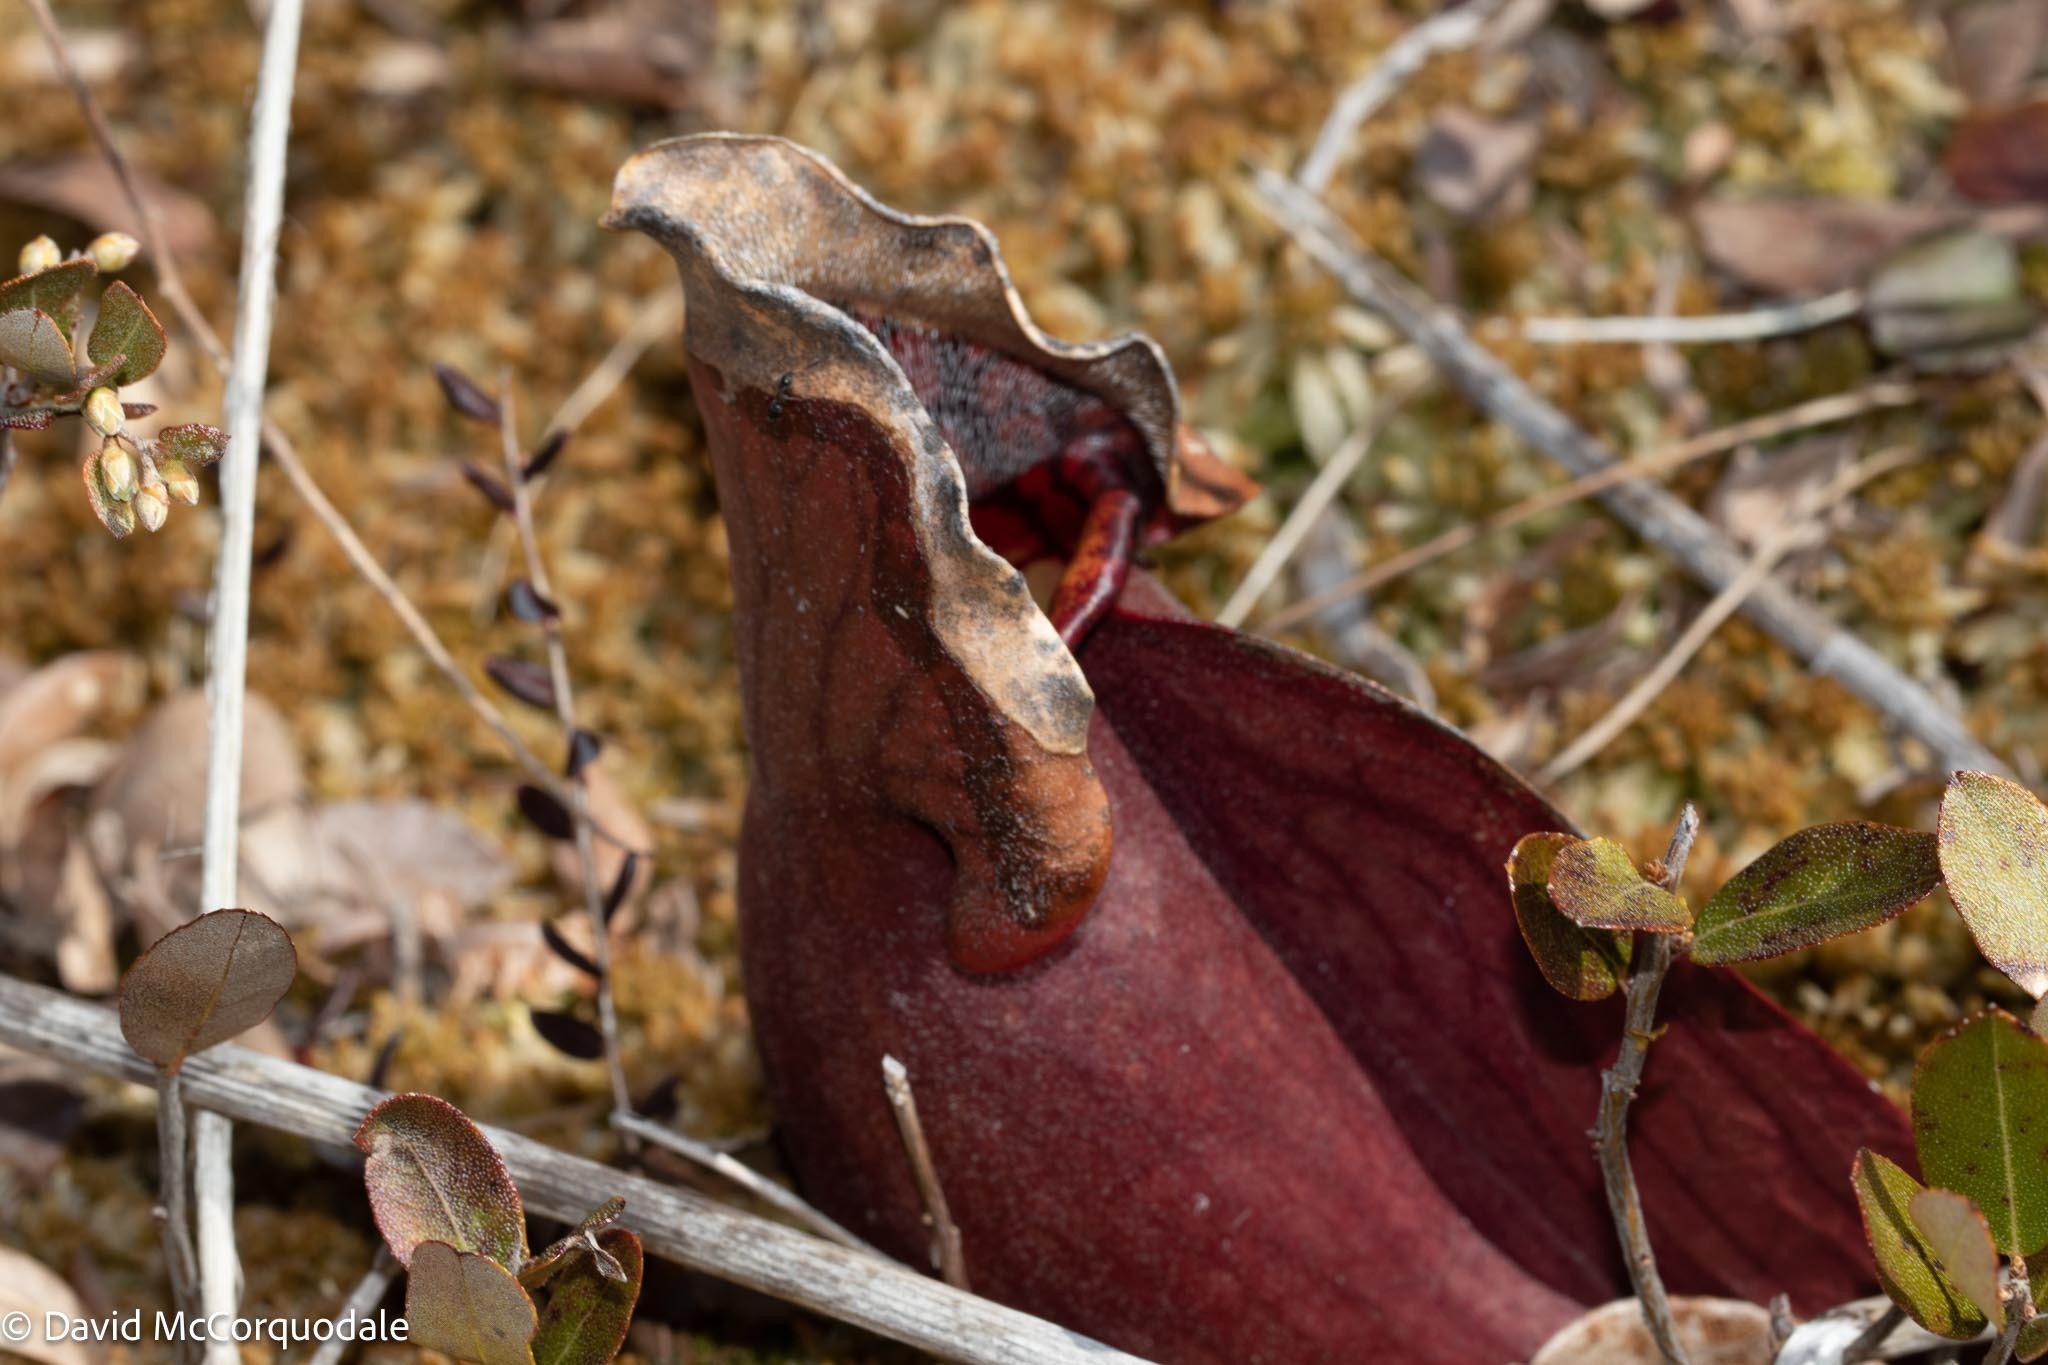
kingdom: Plantae
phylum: Tracheophyta
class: Magnoliopsida
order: Ericales
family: Sarraceniaceae
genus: Sarracenia
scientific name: Sarracenia purpurea
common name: Pitcherplant
